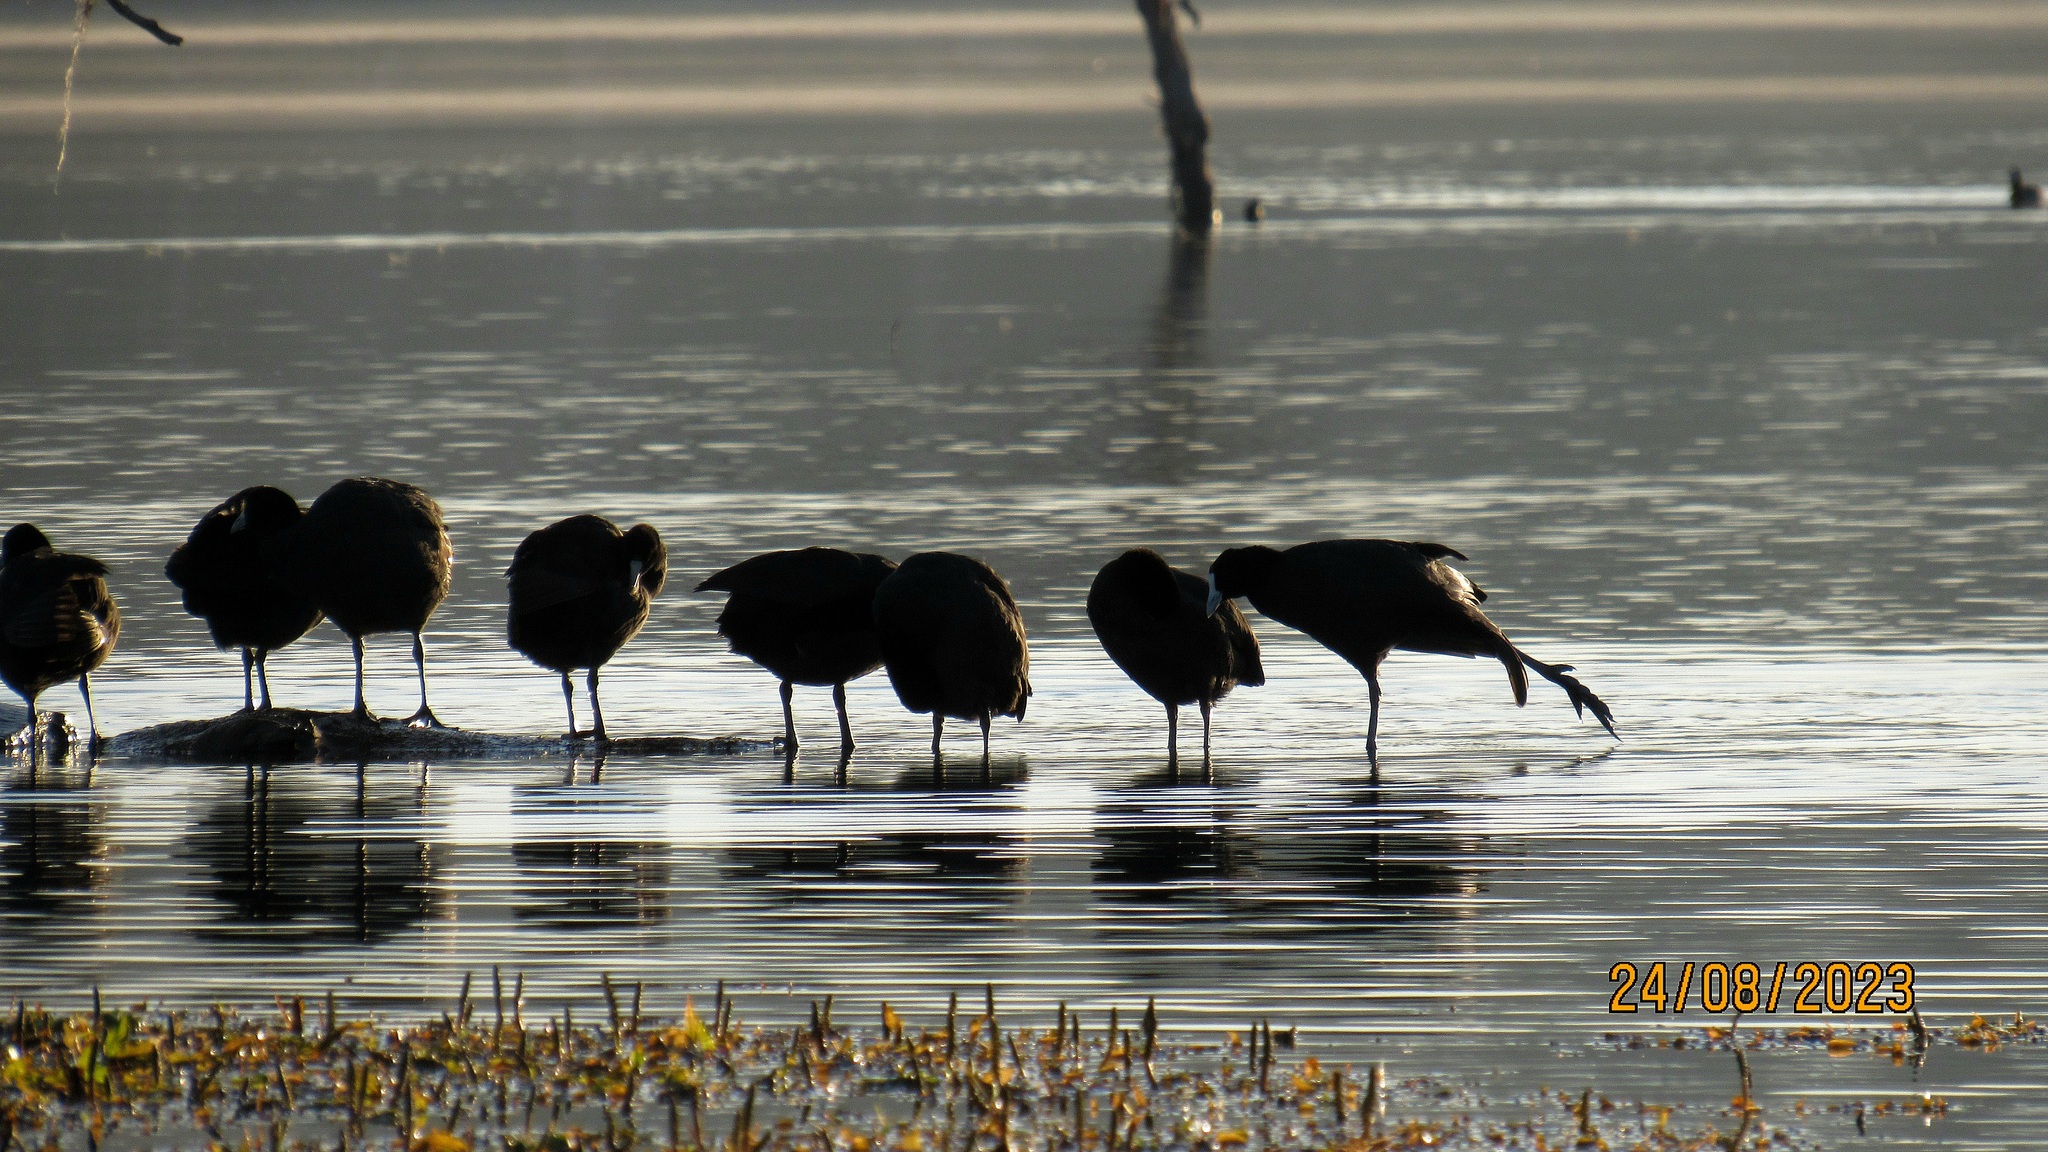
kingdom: Animalia
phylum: Chordata
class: Aves
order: Gruiformes
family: Rallidae
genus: Fulica
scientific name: Fulica cristata
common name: Red-knobbed coot
